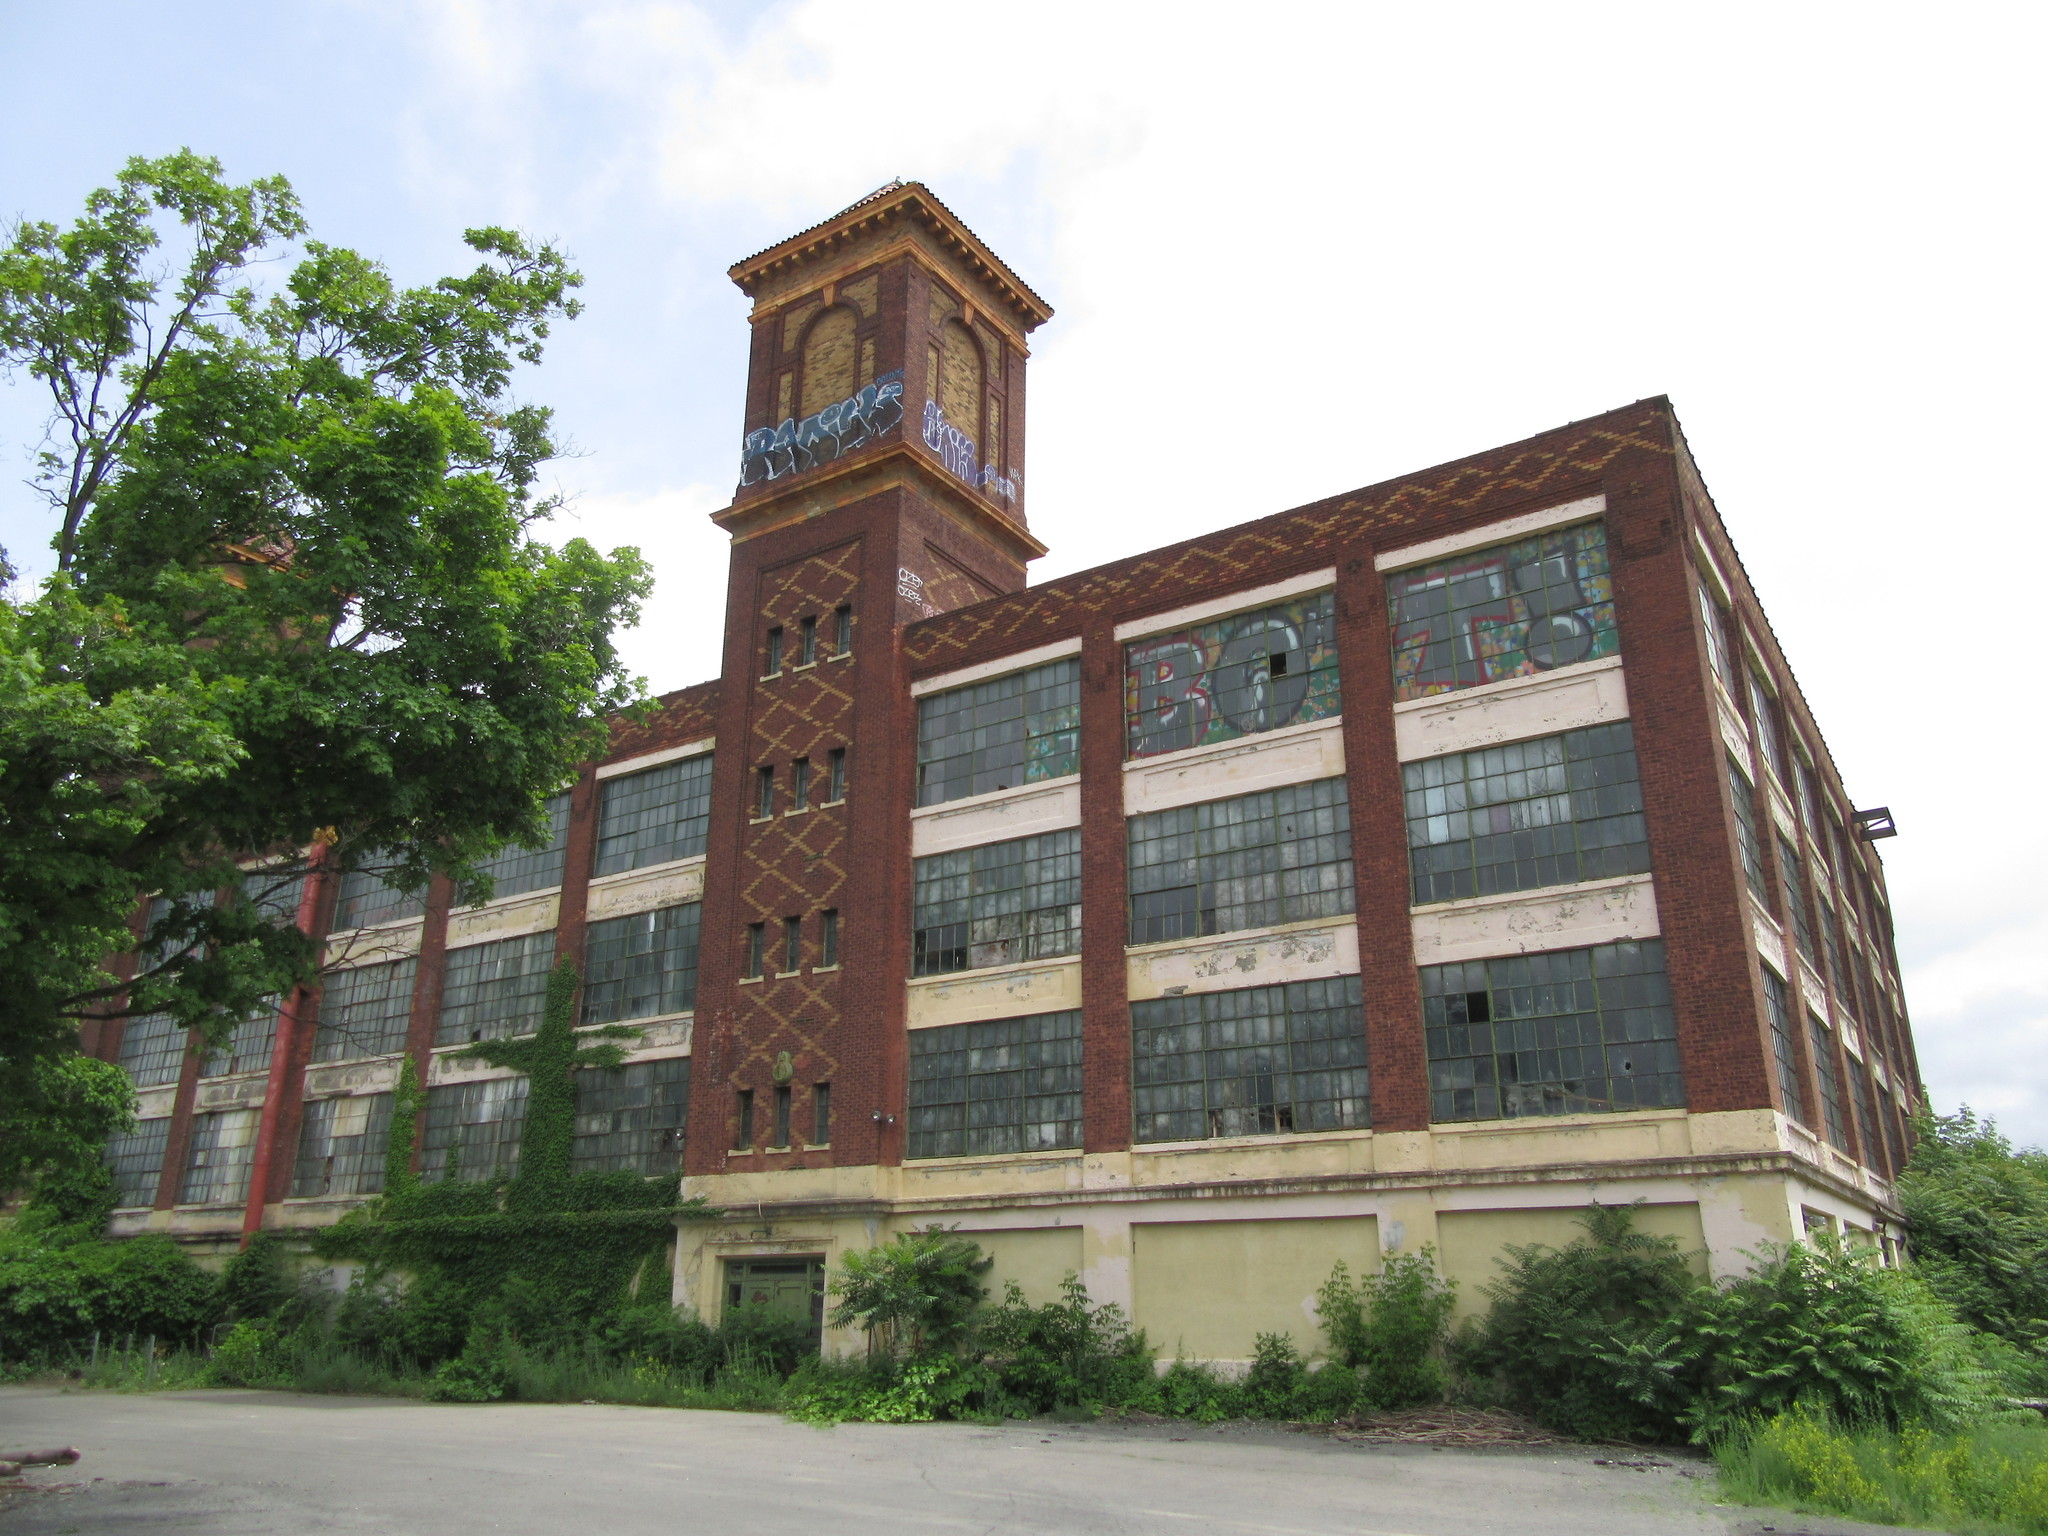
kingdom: Plantae
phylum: Tracheophyta
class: Magnoliopsida
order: Sapindales
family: Simaroubaceae
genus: Ailanthus
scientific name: Ailanthus altissima
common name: Tree-of-heaven
